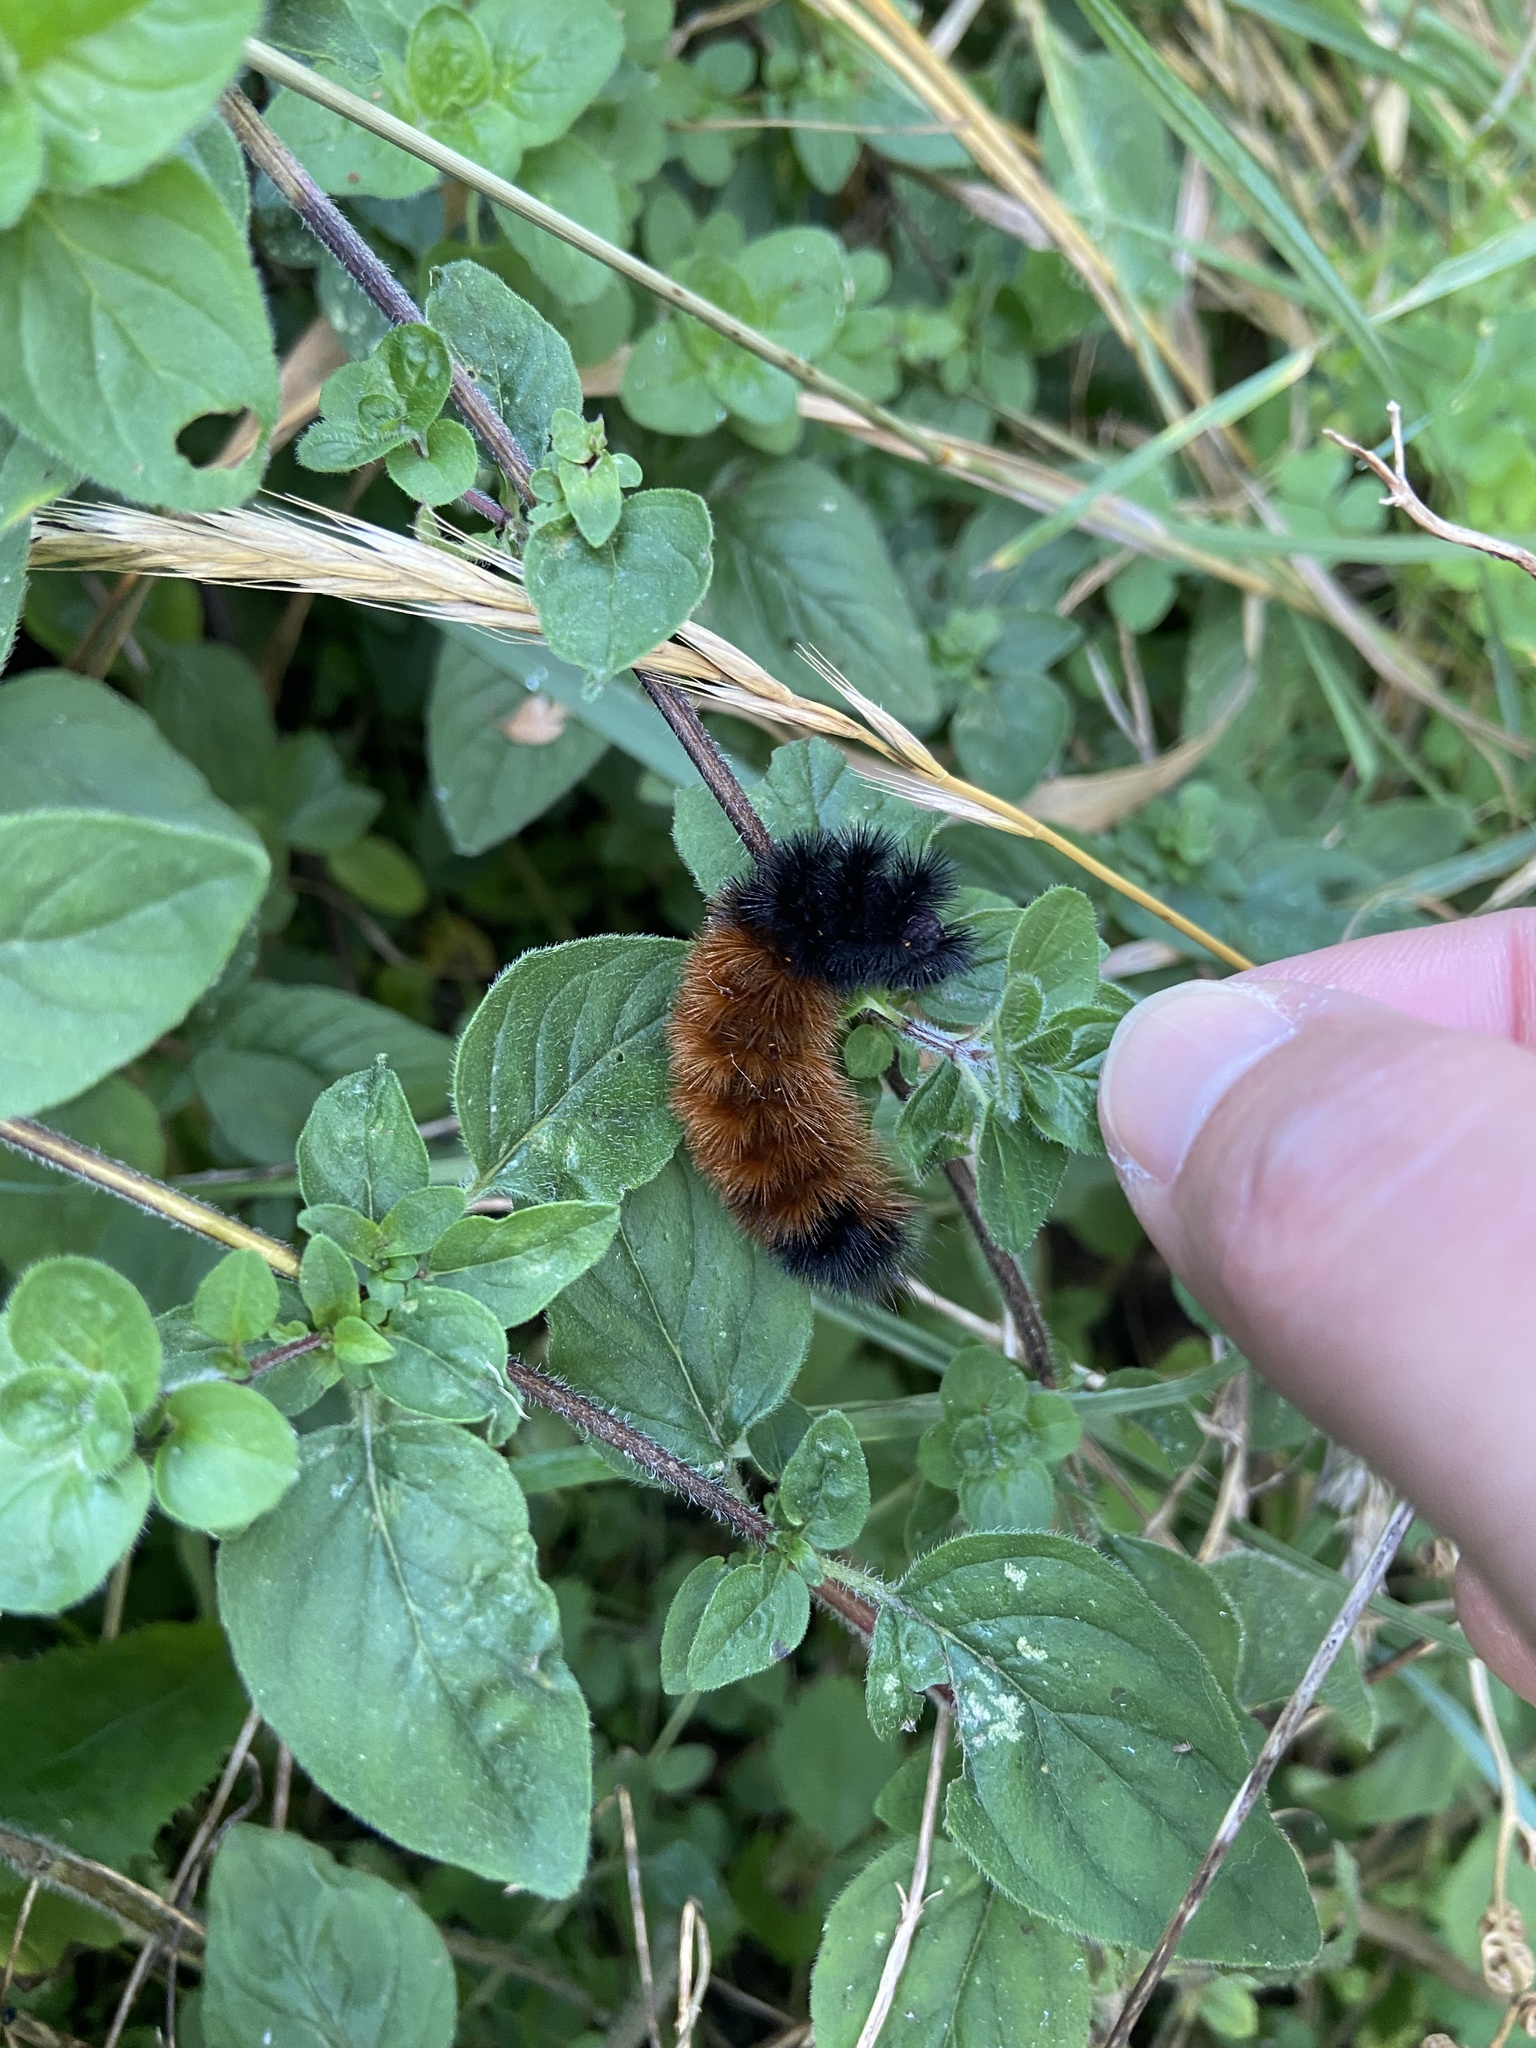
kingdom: Animalia
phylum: Arthropoda
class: Insecta
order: Lepidoptera
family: Erebidae
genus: Pyrrharctia
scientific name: Pyrrharctia isabella
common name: Isabella tiger moth
